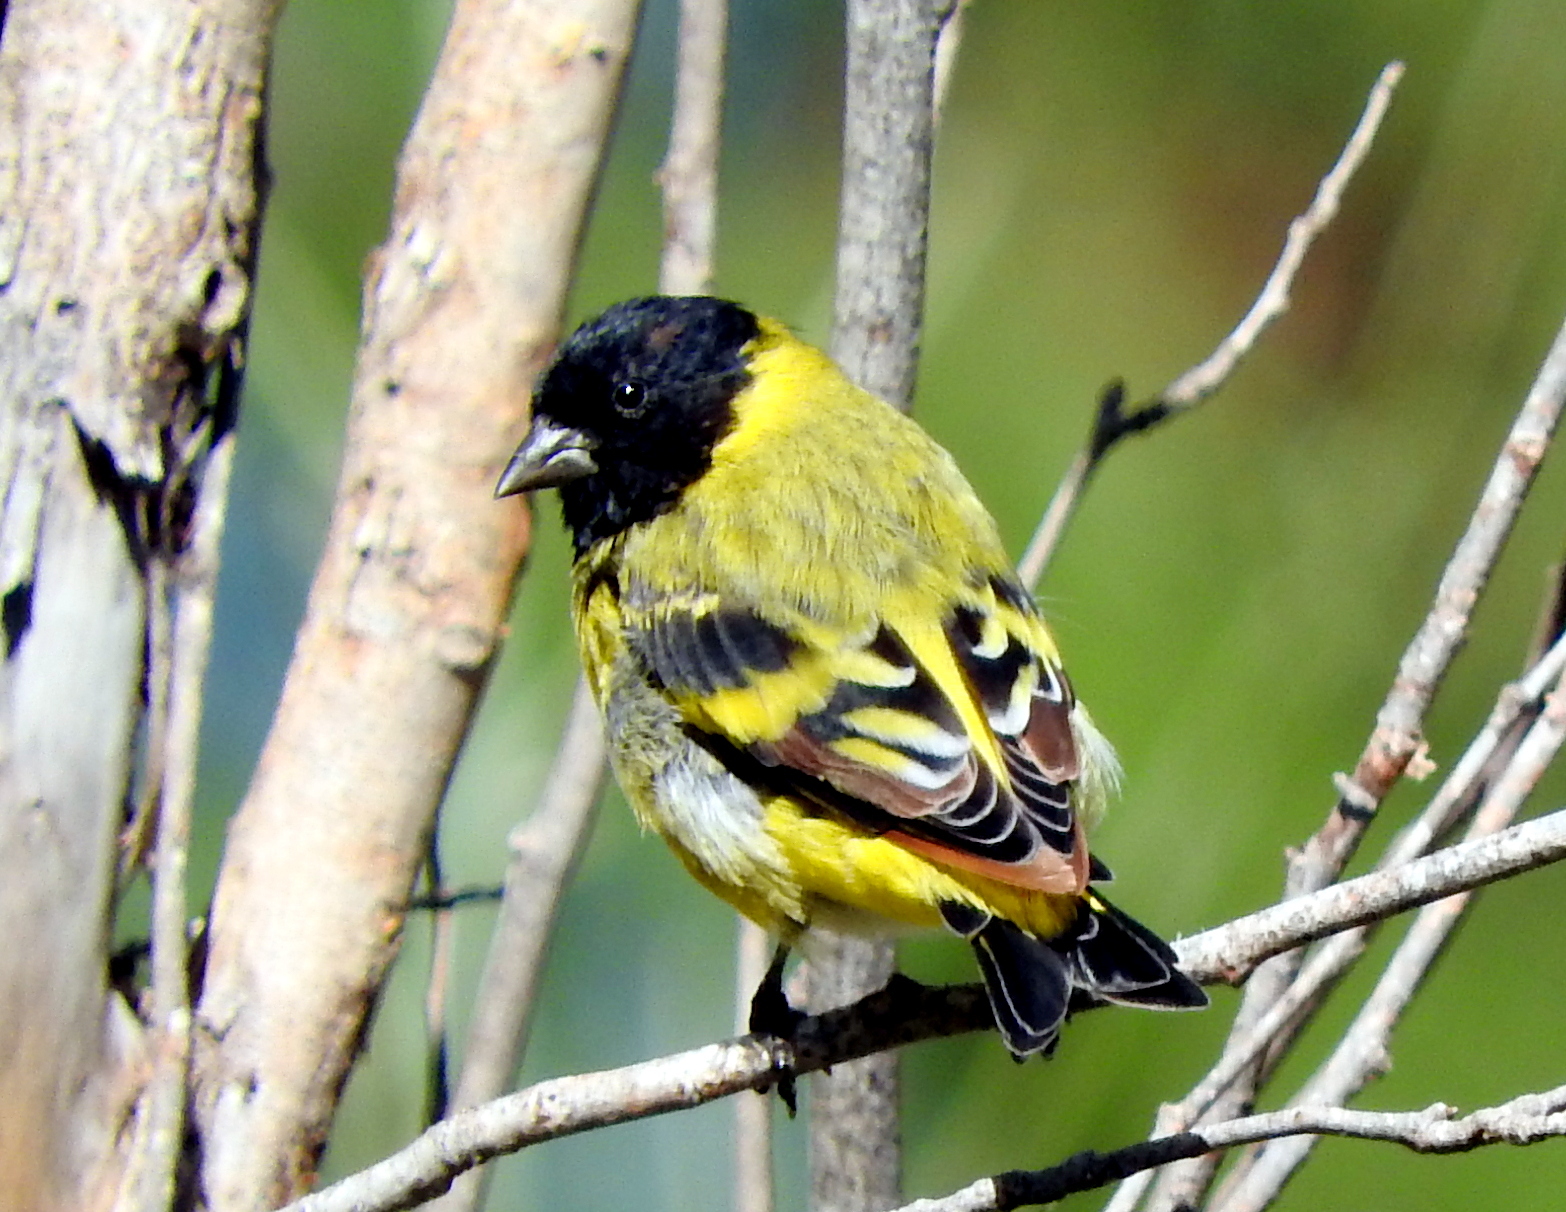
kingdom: Animalia
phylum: Chordata
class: Aves
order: Passeriformes
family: Fringillidae
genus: Spinus
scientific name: Spinus magellanicus
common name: Hooded siskin
